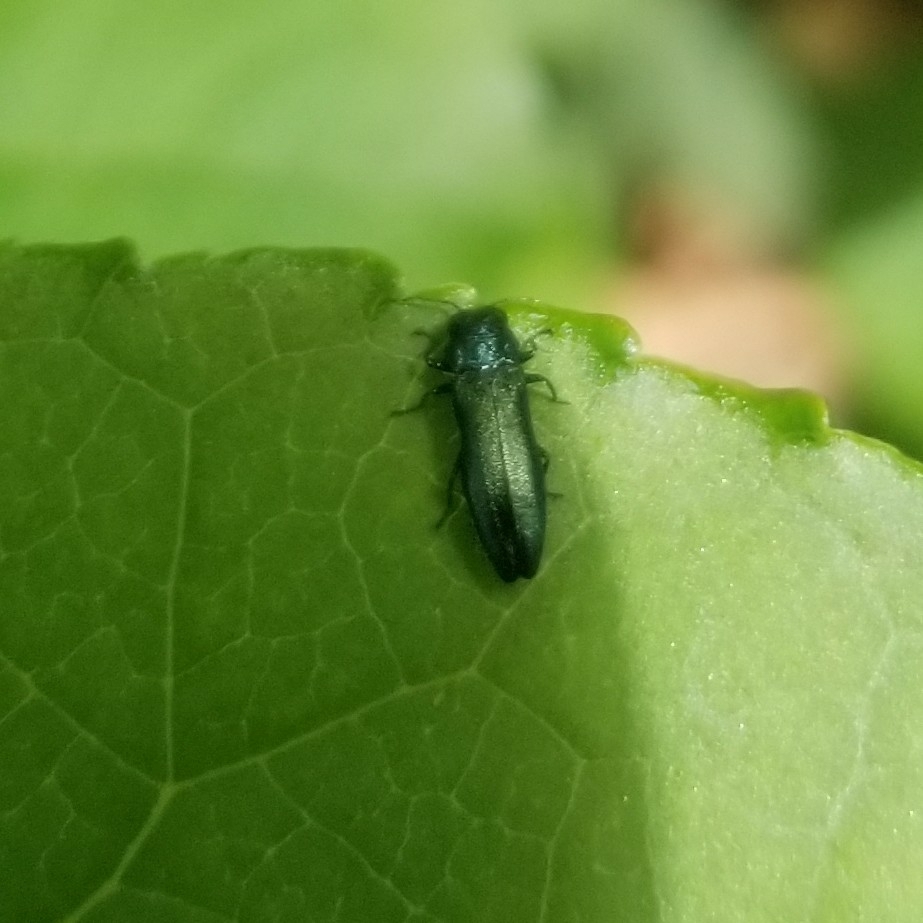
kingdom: Animalia
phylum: Arthropoda
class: Insecta
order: Coleoptera
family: Buprestidae
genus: Agrilus
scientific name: Agrilus cyanescens
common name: Bluish borer beetle
